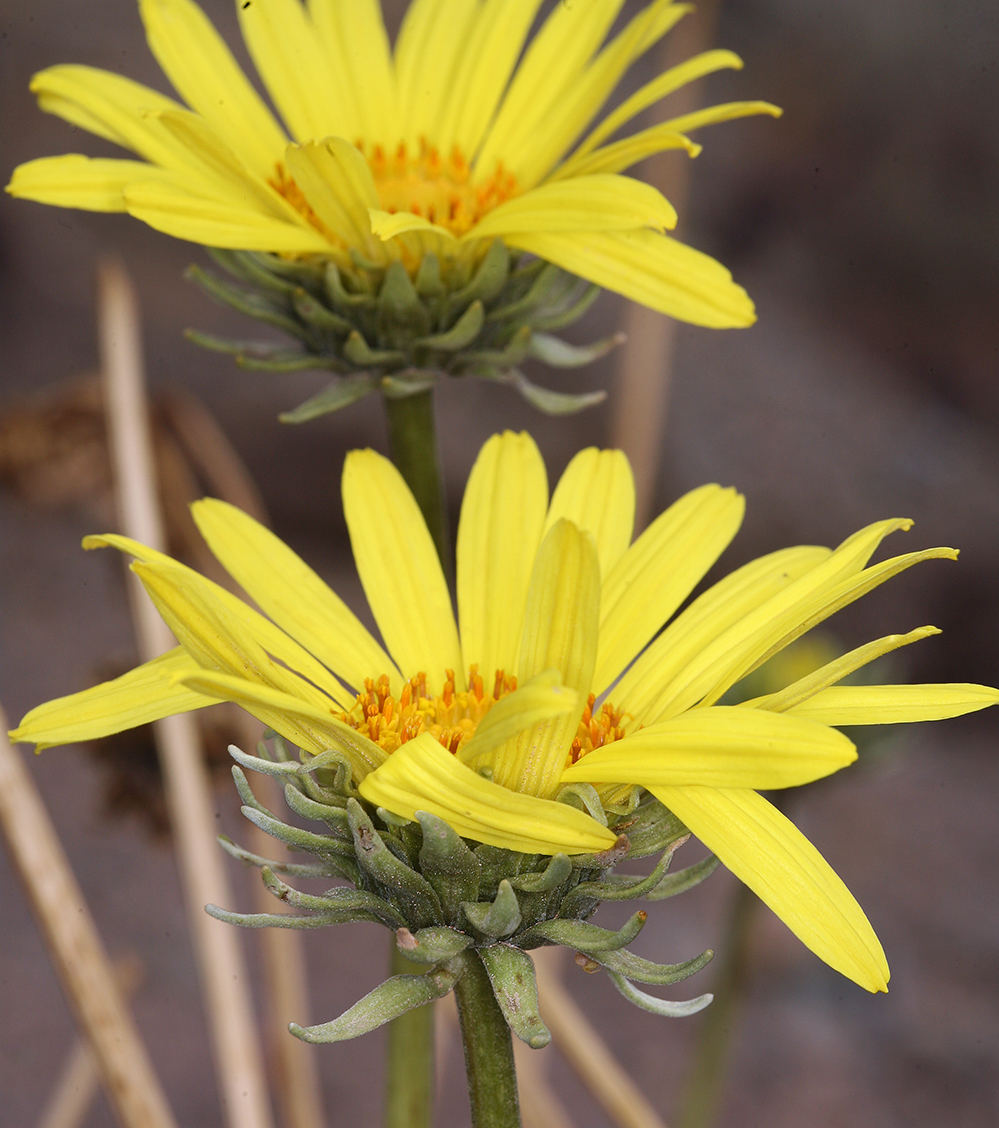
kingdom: Plantae
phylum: Tracheophyta
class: Magnoliopsida
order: Asterales
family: Asteraceae
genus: Enceliopsis
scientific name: Enceliopsis covillei
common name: Panamint daisy
